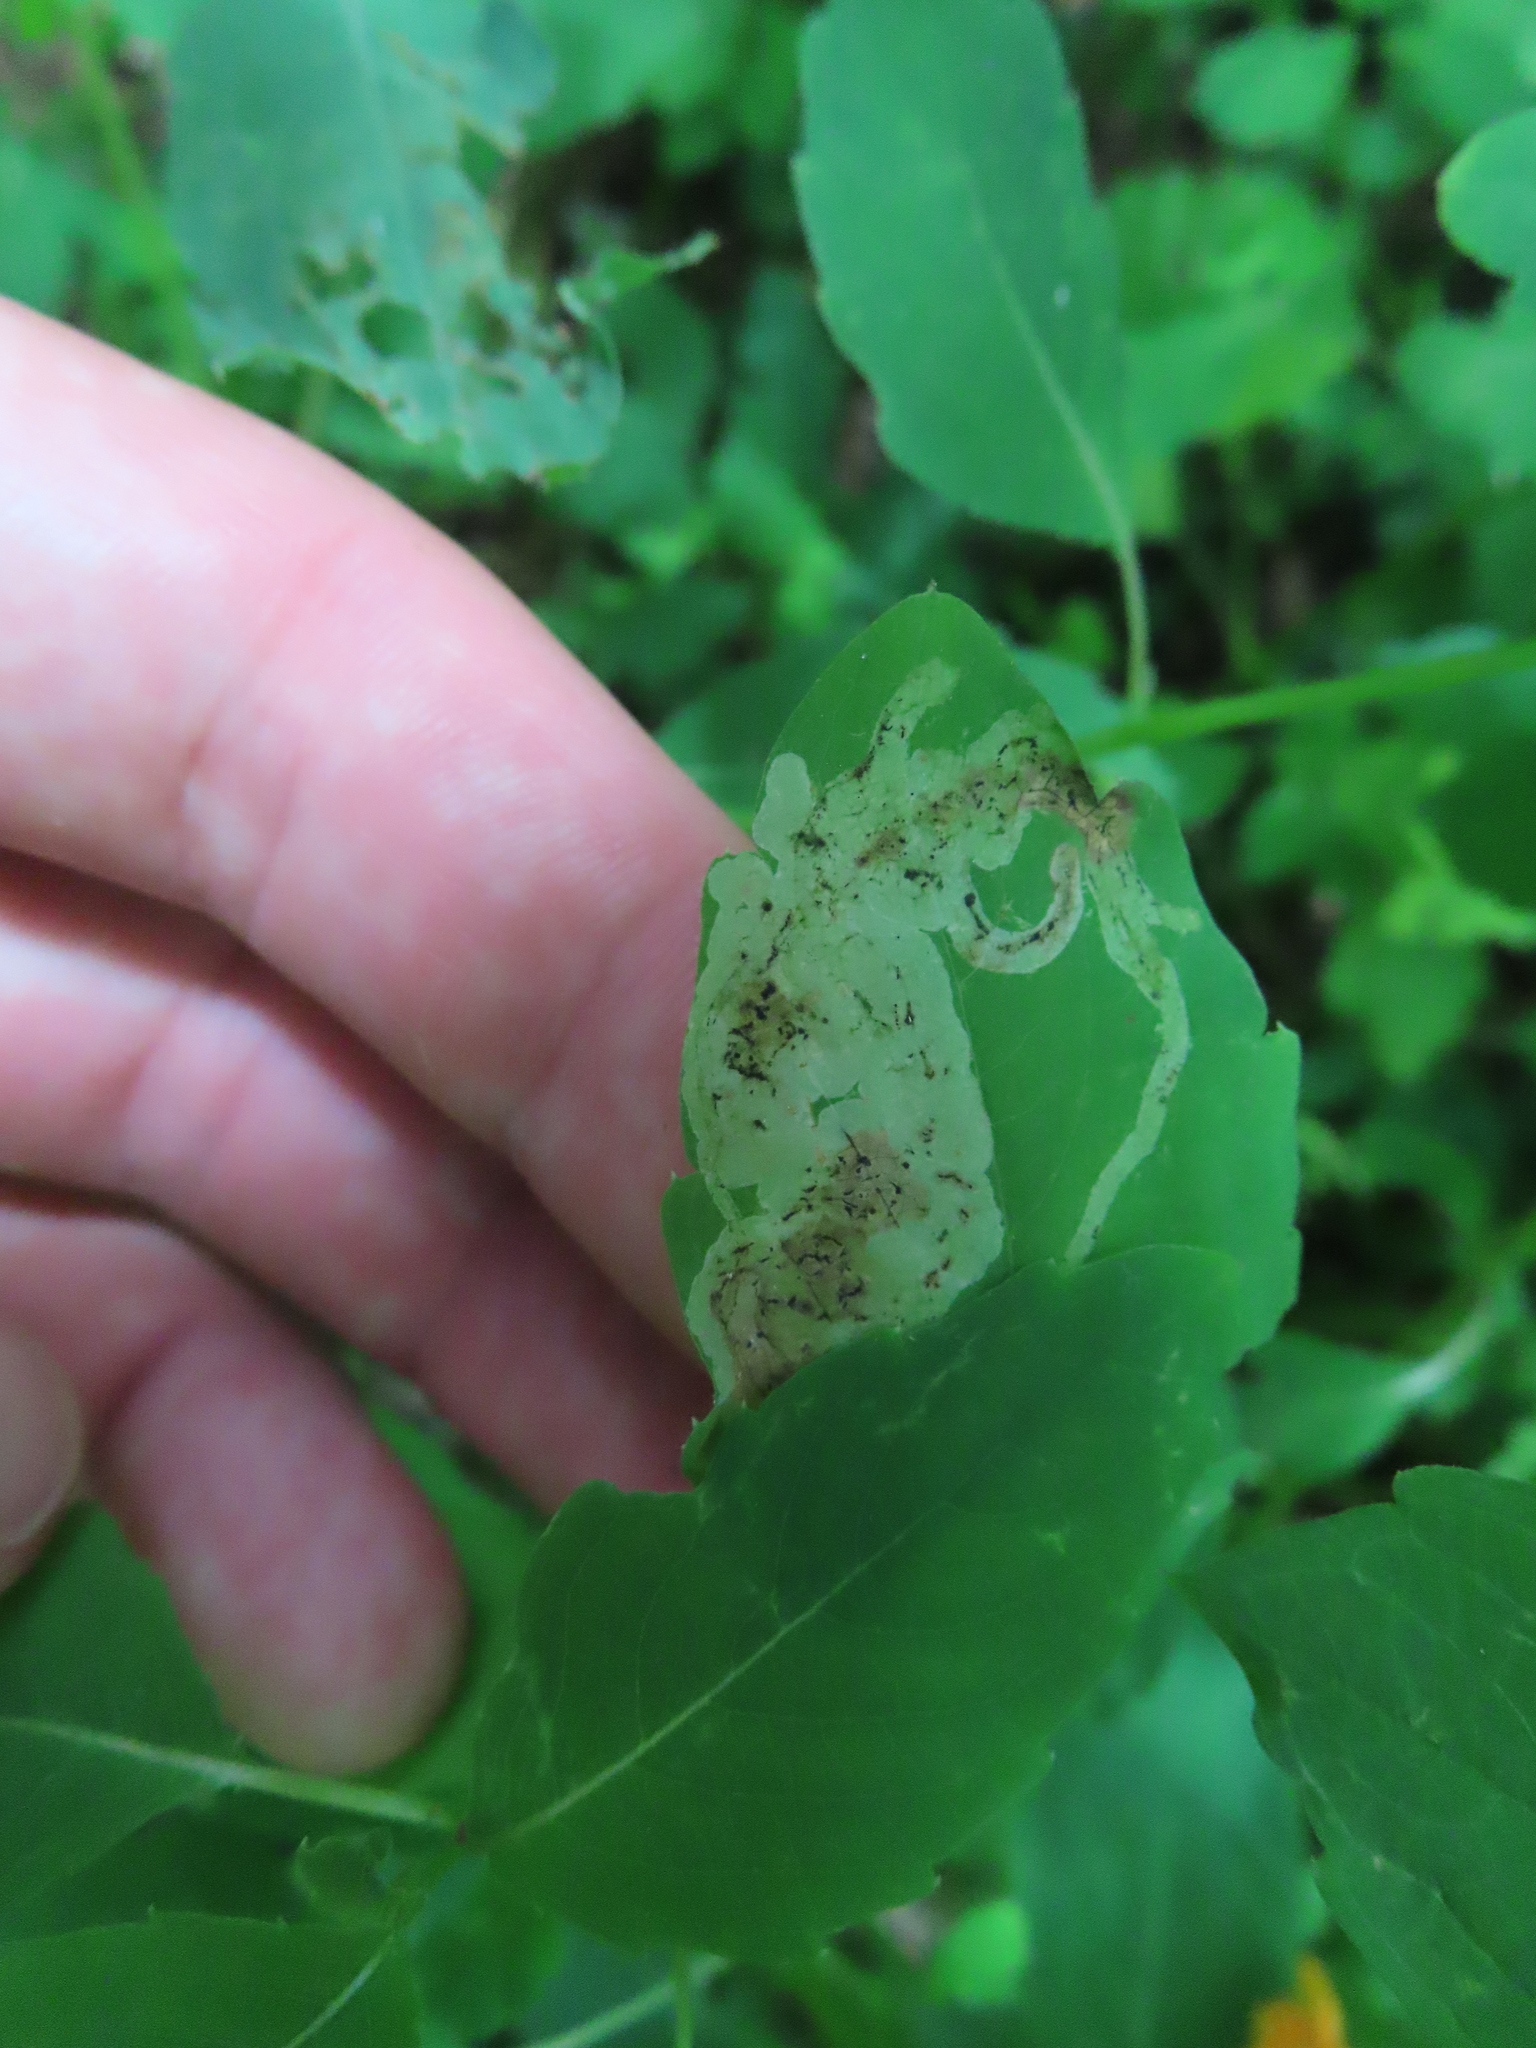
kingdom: Animalia
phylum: Arthropoda
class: Insecta
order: Diptera
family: Agromyzidae
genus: Phytoliriomyza
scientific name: Phytoliriomyza melampyga
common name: Jewelweed leaf-miner fly
